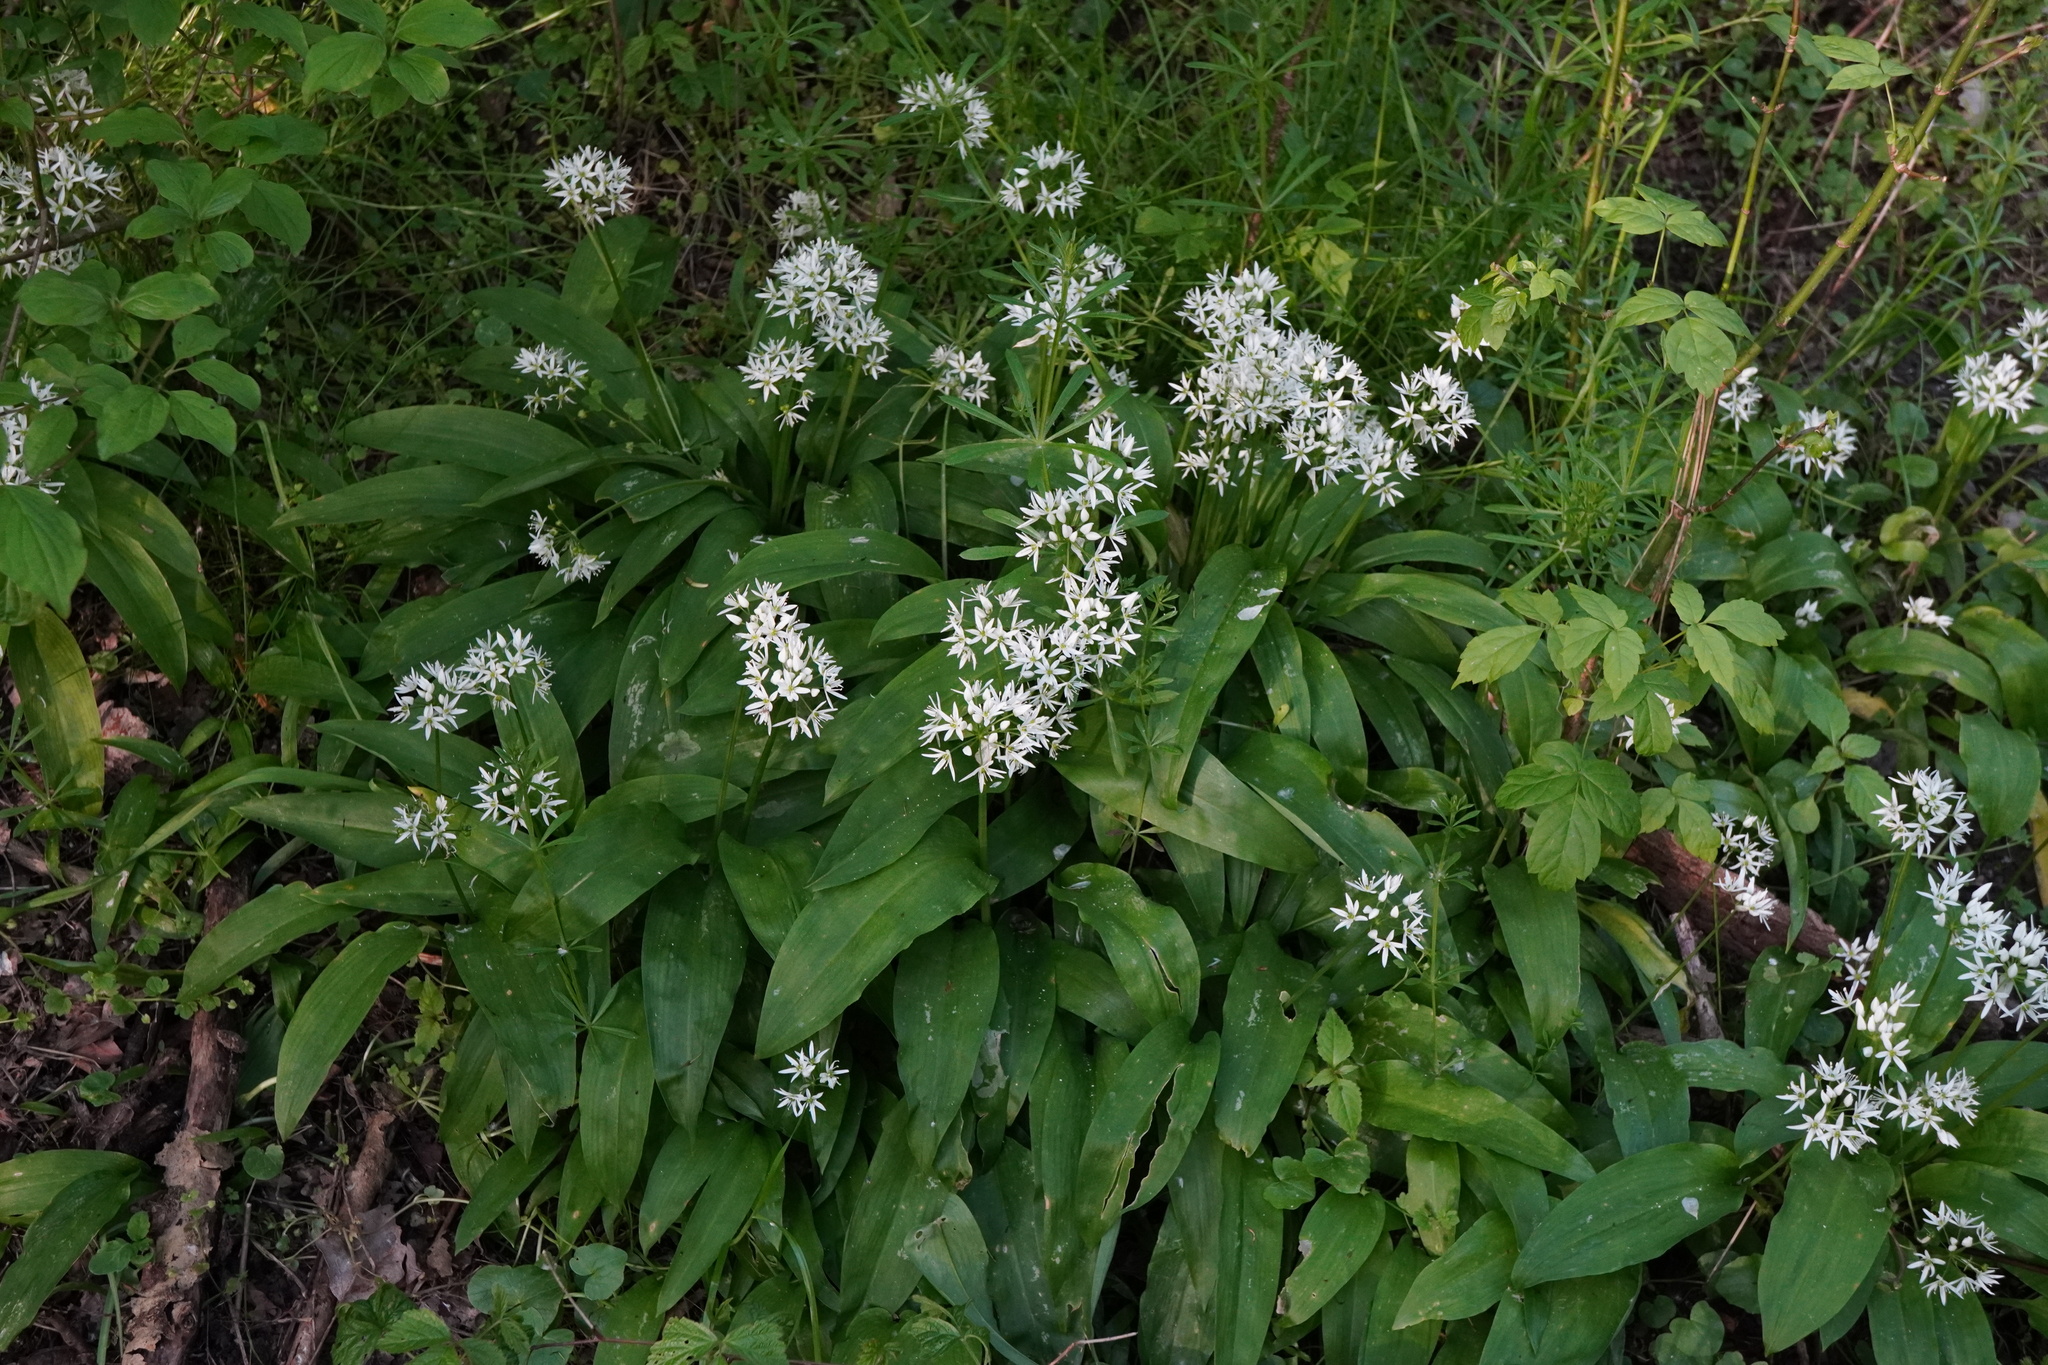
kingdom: Plantae
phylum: Tracheophyta
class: Liliopsida
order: Asparagales
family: Amaryllidaceae
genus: Allium
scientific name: Allium ursinum
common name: Ramsons
